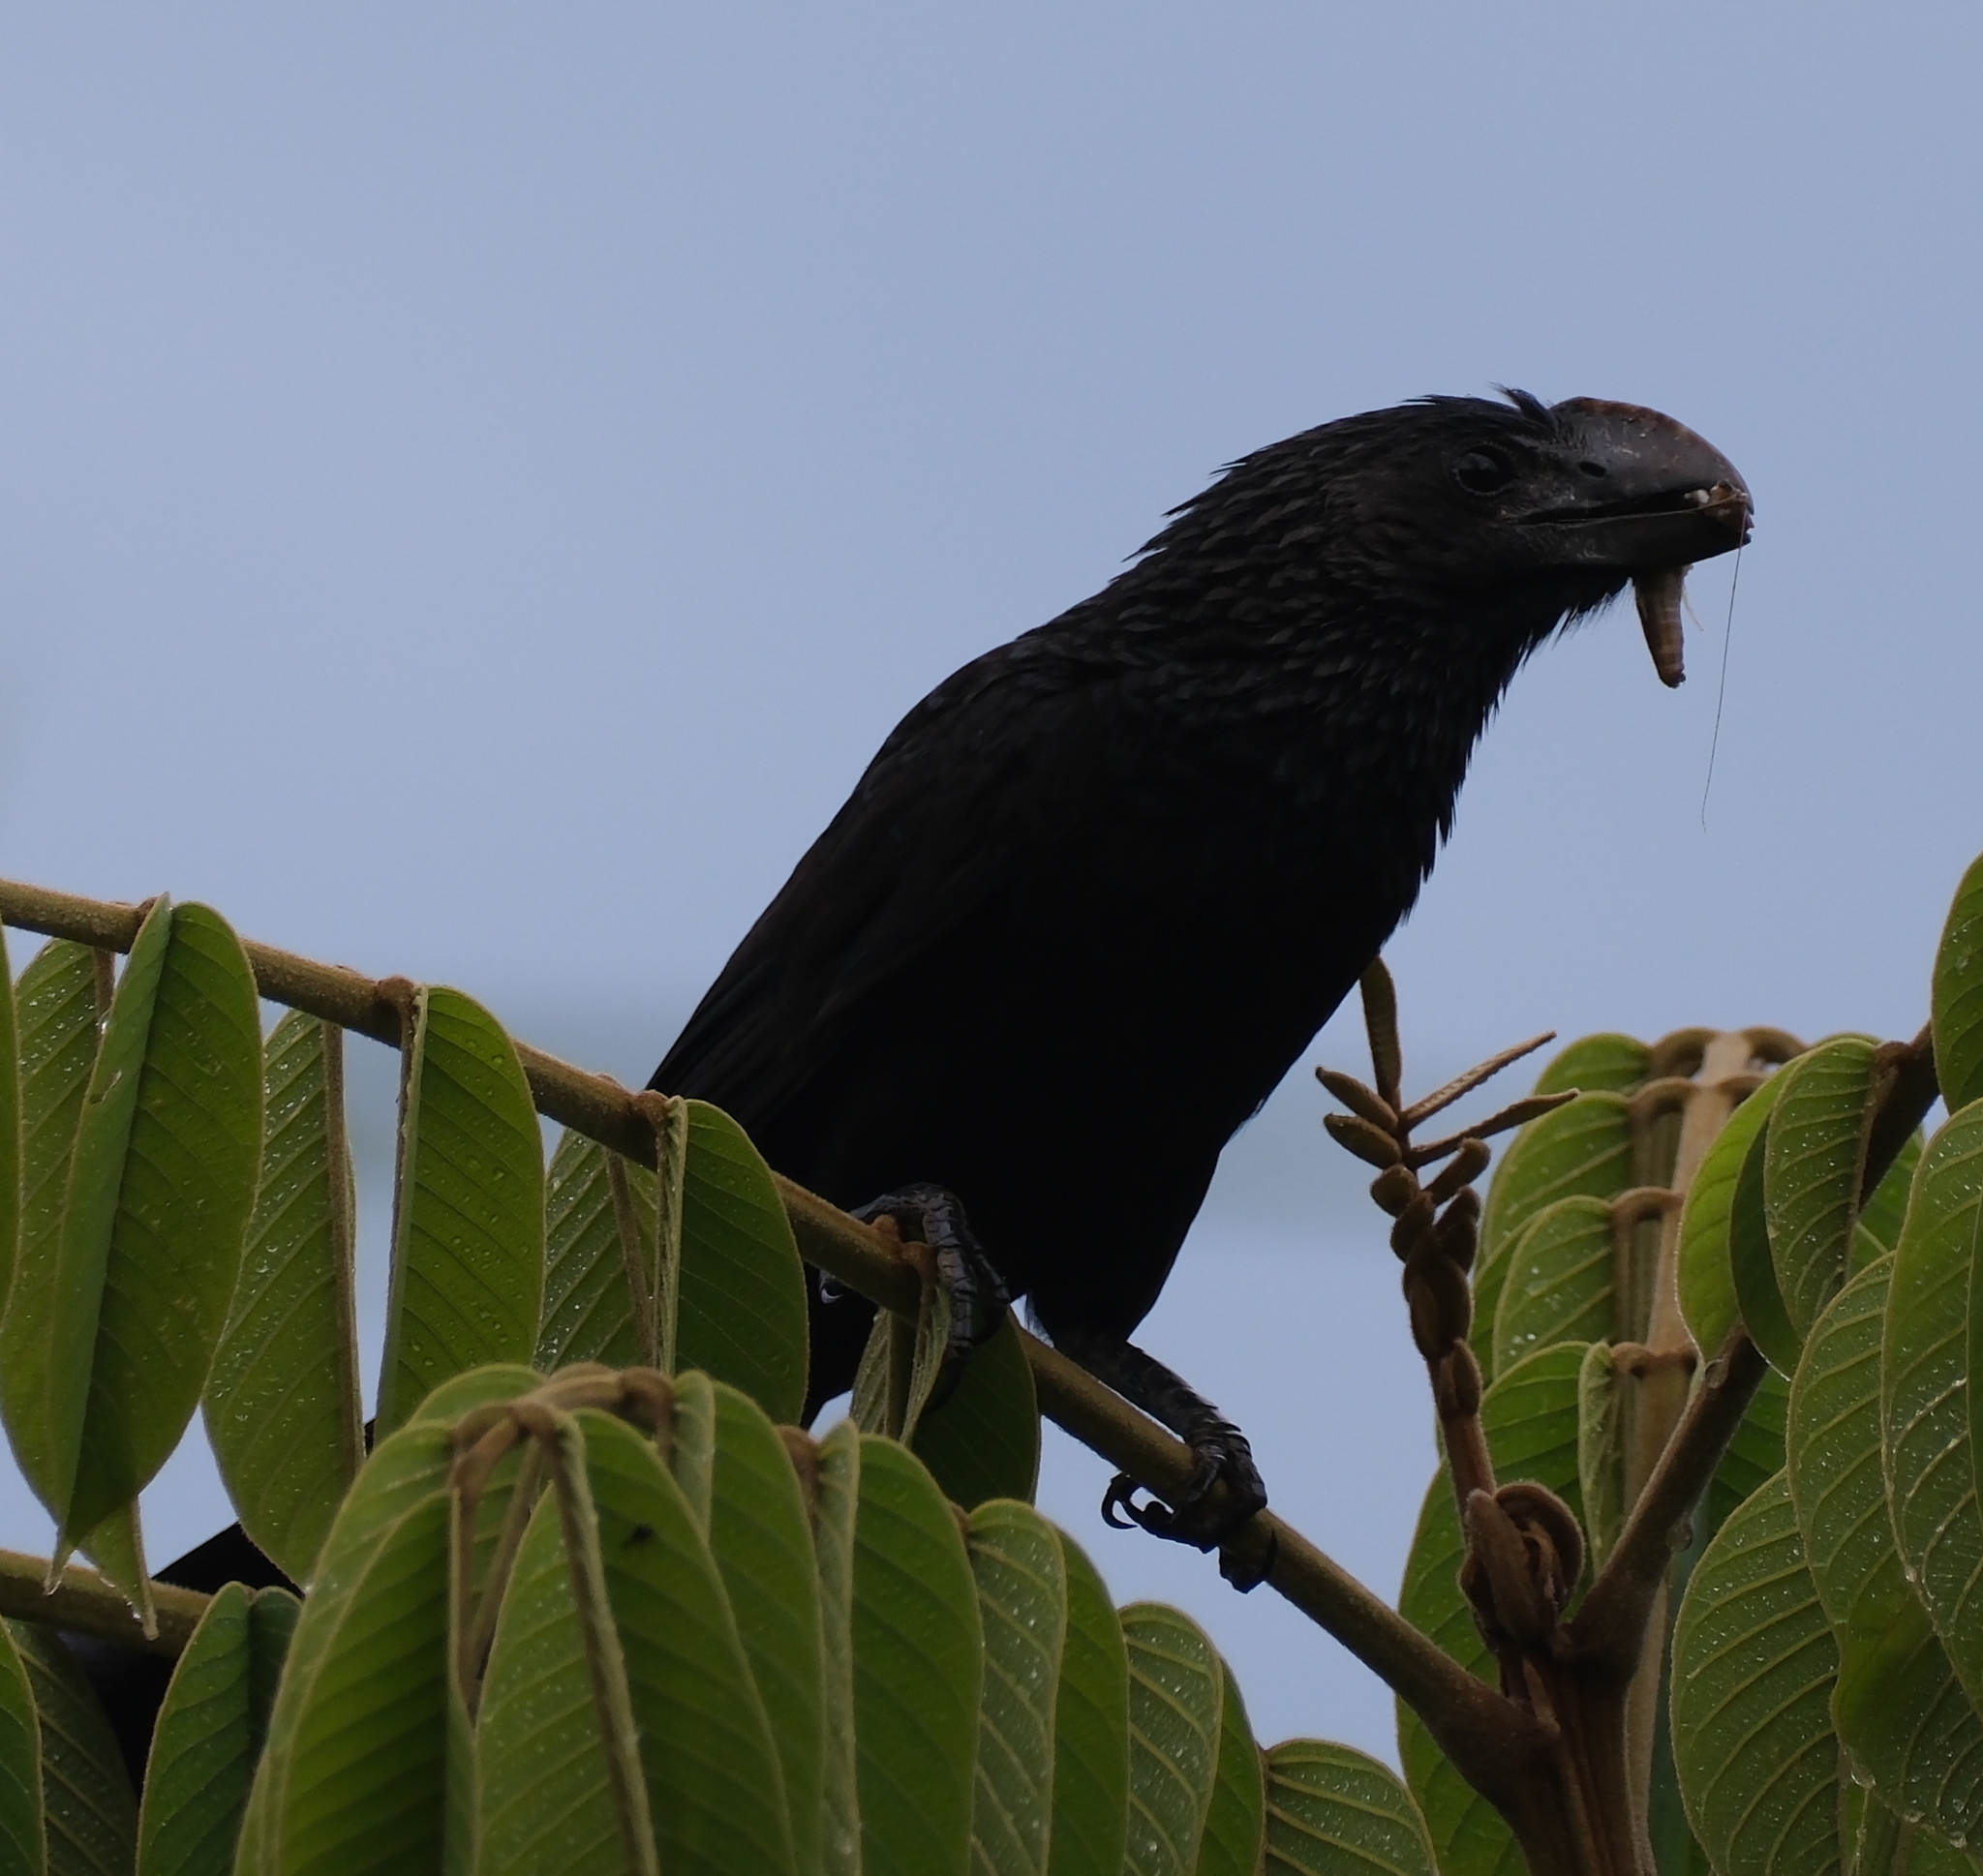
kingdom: Animalia
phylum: Chordata
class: Aves
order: Cuculiformes
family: Cuculidae
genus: Crotophaga
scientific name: Crotophaga ani
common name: Smooth-billed ani
